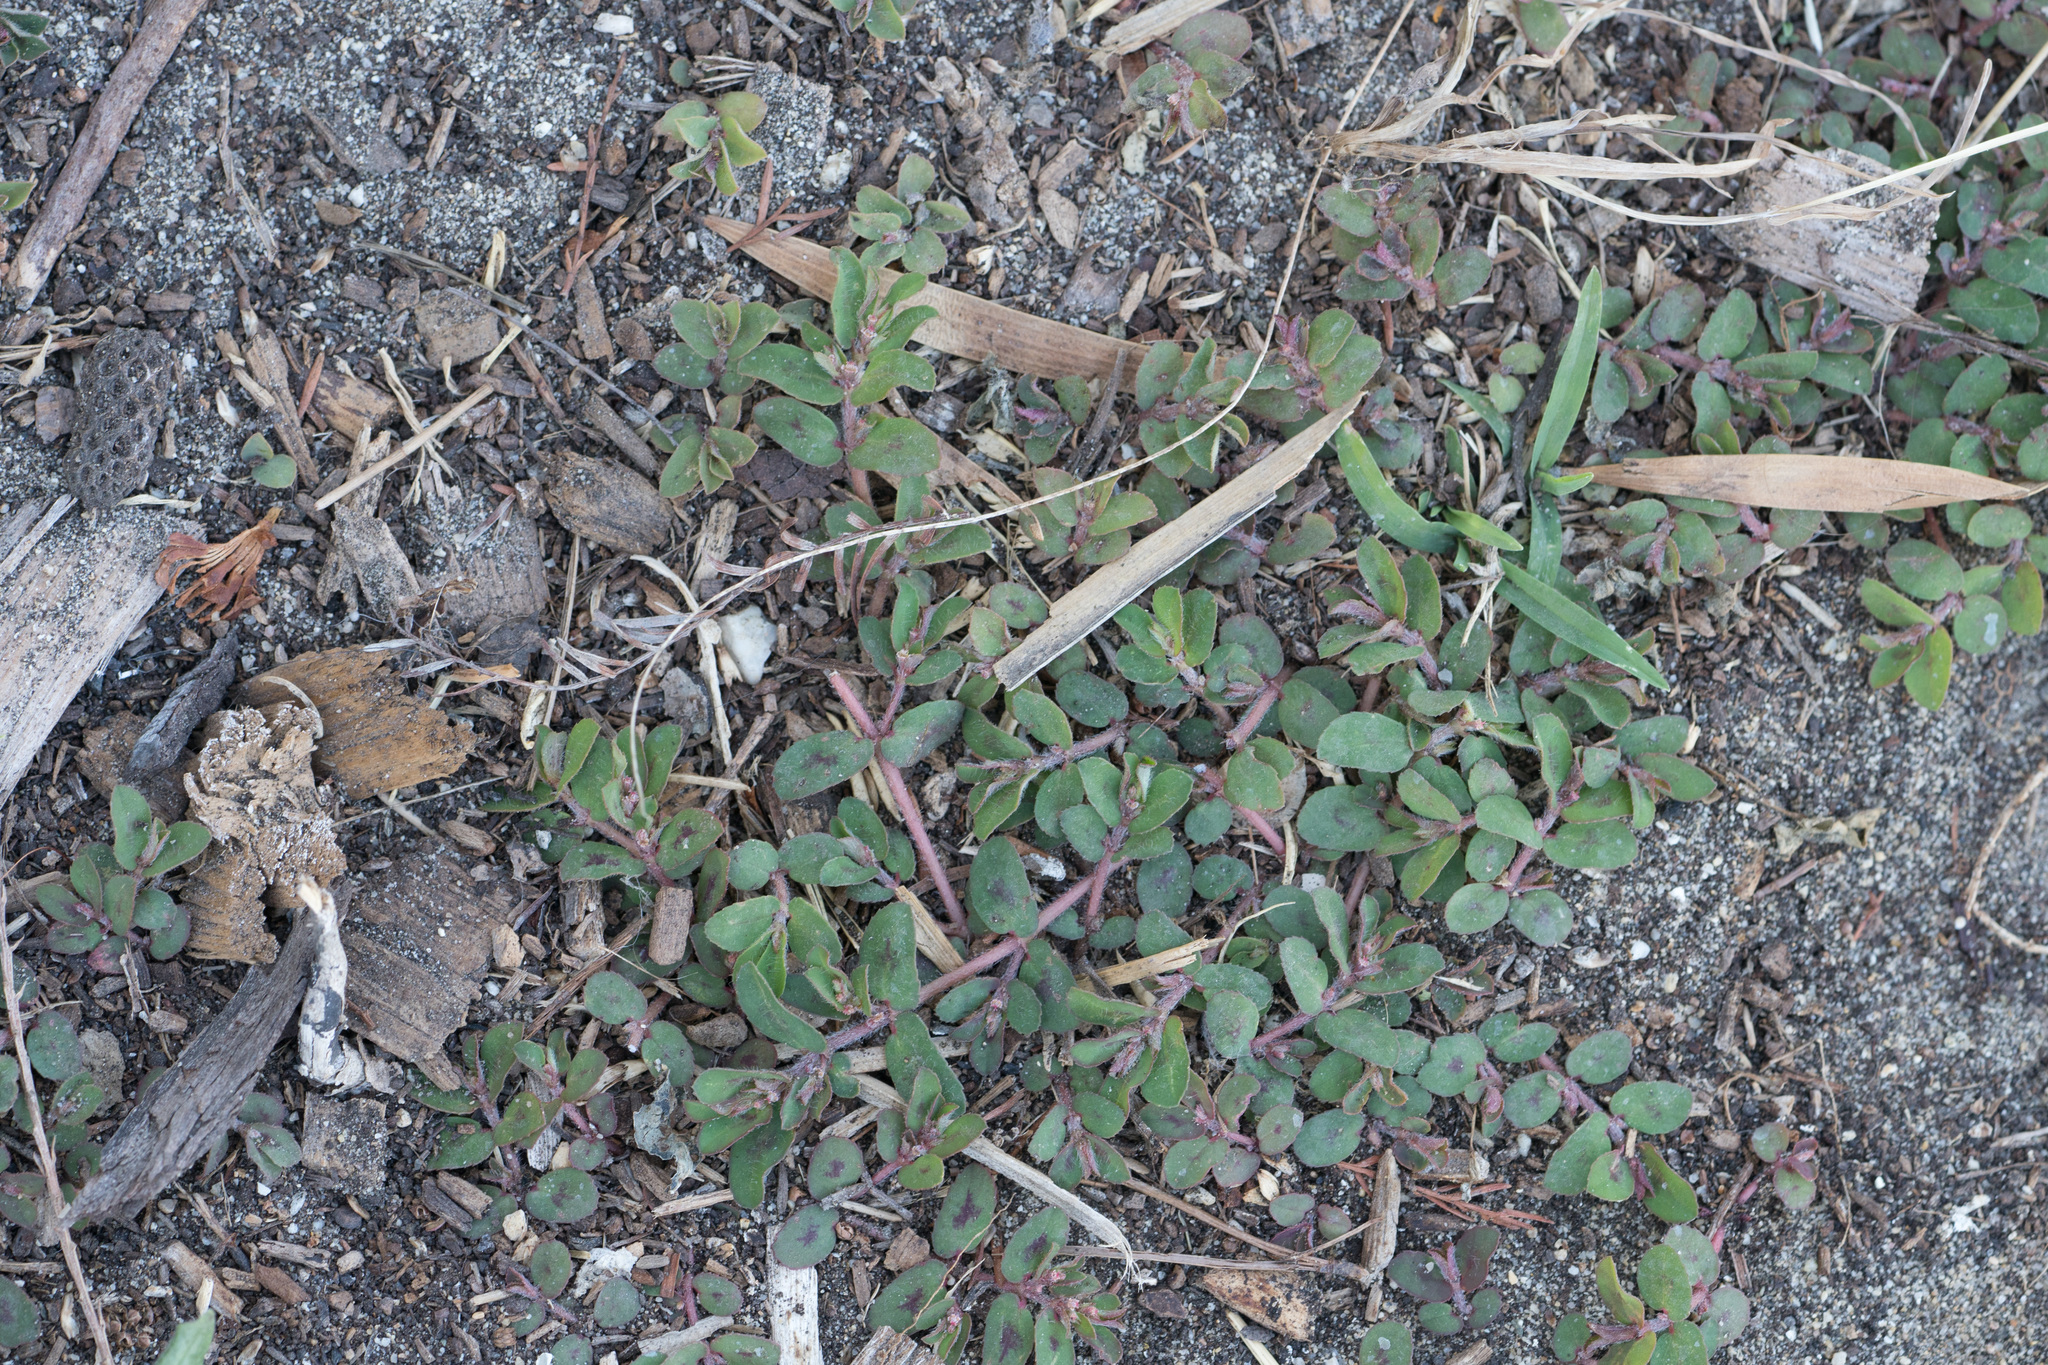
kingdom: Plantae
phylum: Tracheophyta
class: Magnoliopsida
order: Malpighiales
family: Euphorbiaceae
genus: Euphorbia
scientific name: Euphorbia maculata
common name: Spotted spurge
